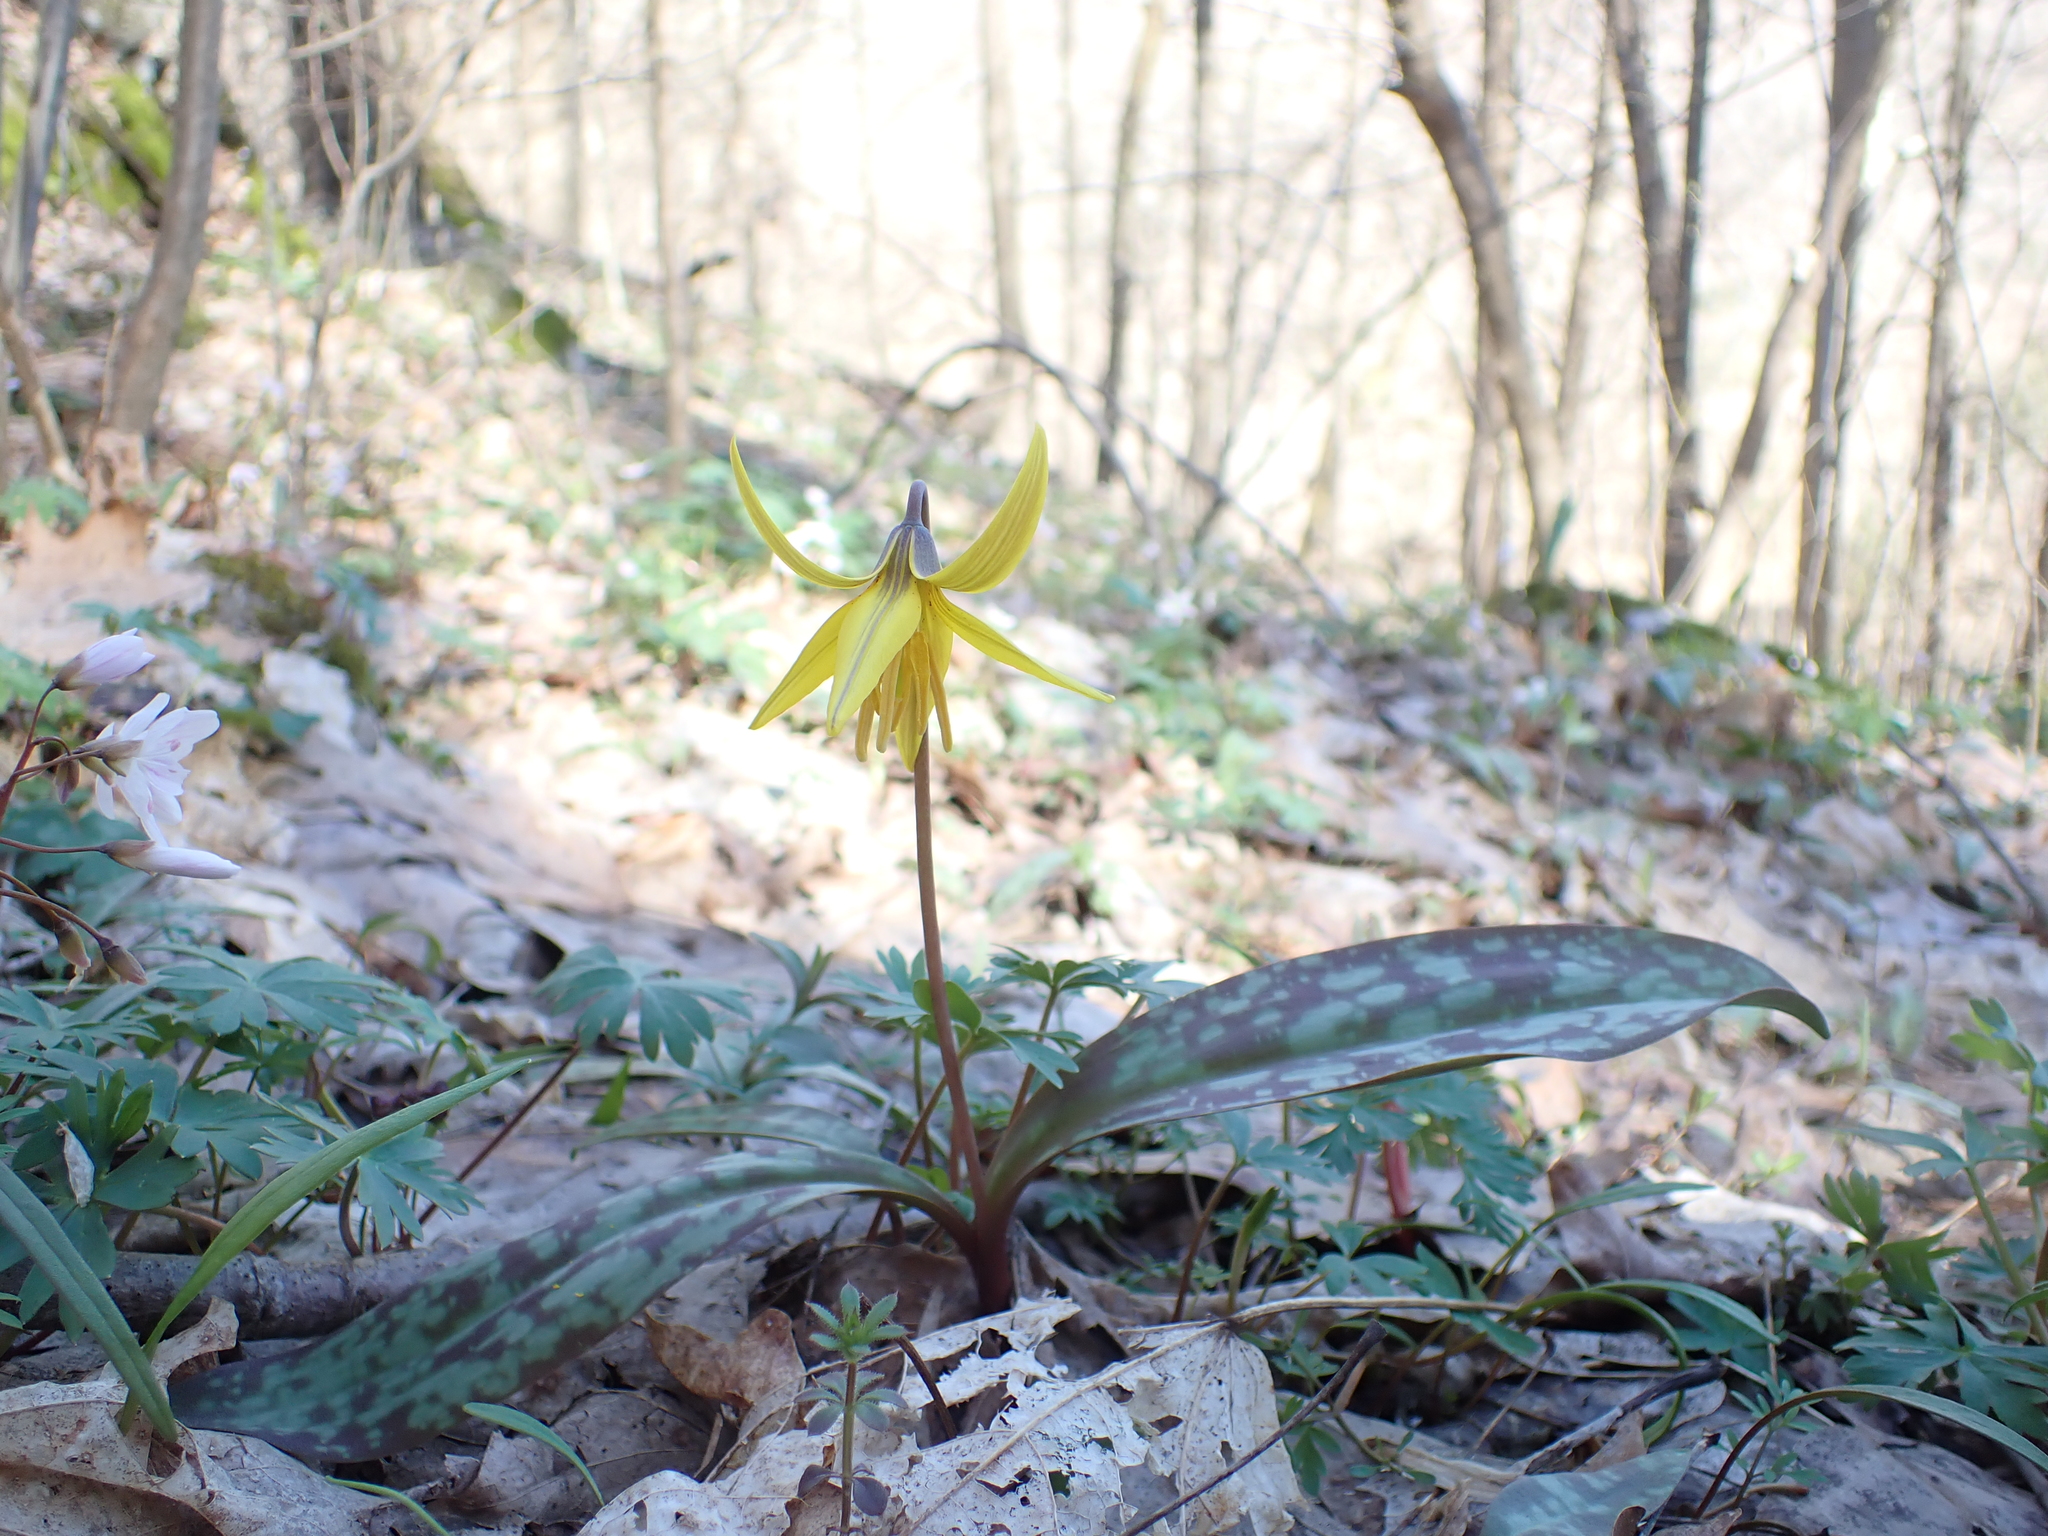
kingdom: Plantae
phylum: Tracheophyta
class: Liliopsida
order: Liliales
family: Liliaceae
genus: Erythronium
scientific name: Erythronium americanum
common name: Yellow adder's-tongue
